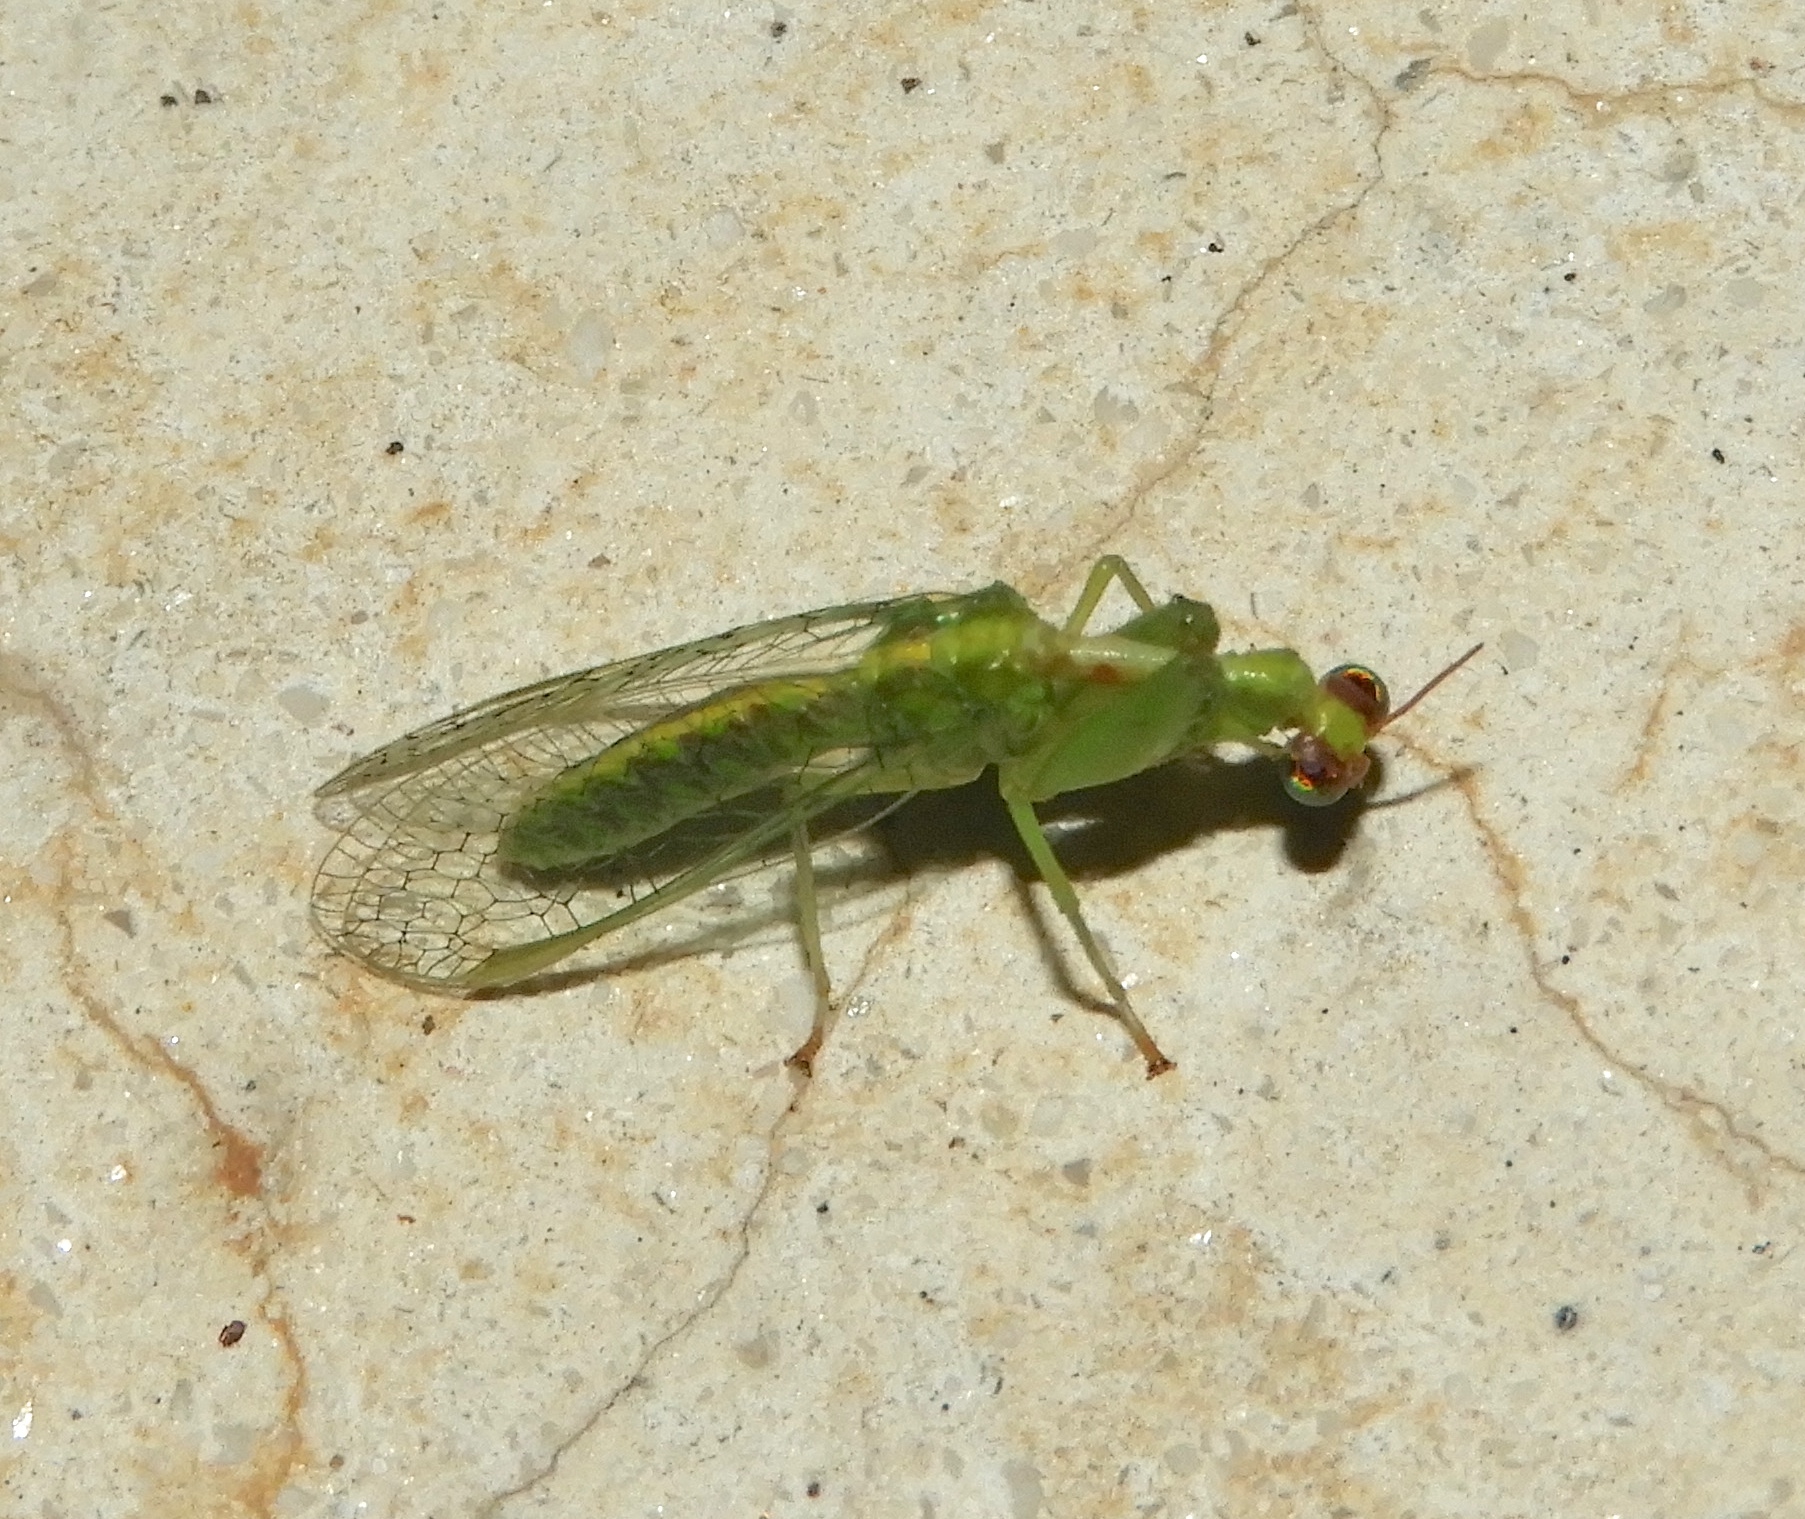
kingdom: Animalia
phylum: Arthropoda
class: Insecta
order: Neuroptera
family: Mantispidae
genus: Zeugomantispa
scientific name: Zeugomantispa
